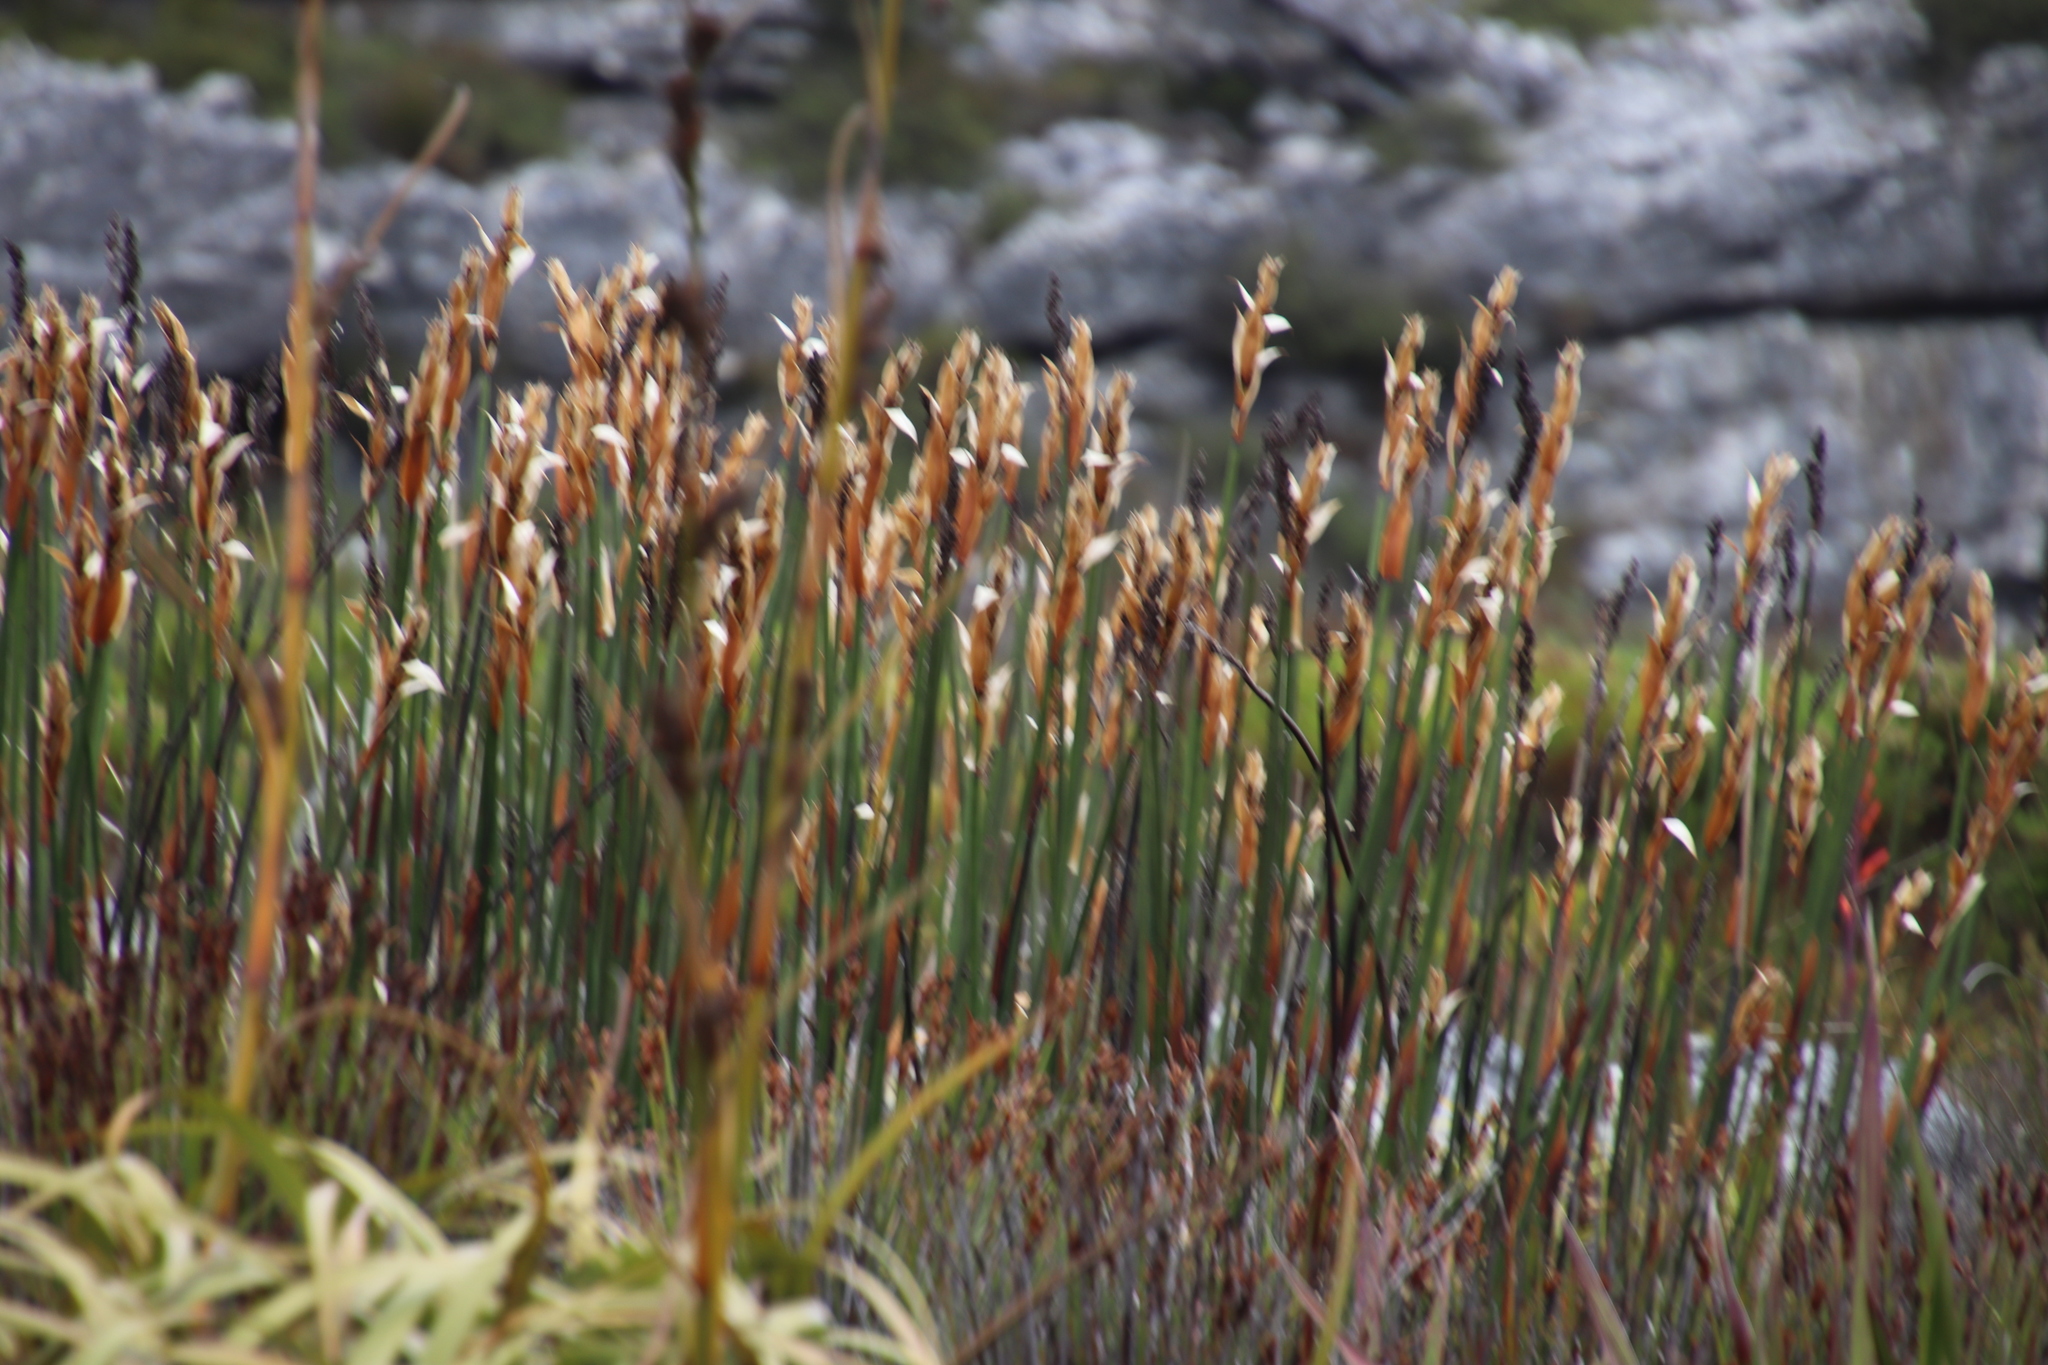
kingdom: Plantae
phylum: Tracheophyta
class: Liliopsida
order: Poales
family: Restionaceae
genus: Elegia
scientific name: Elegia mucronata
